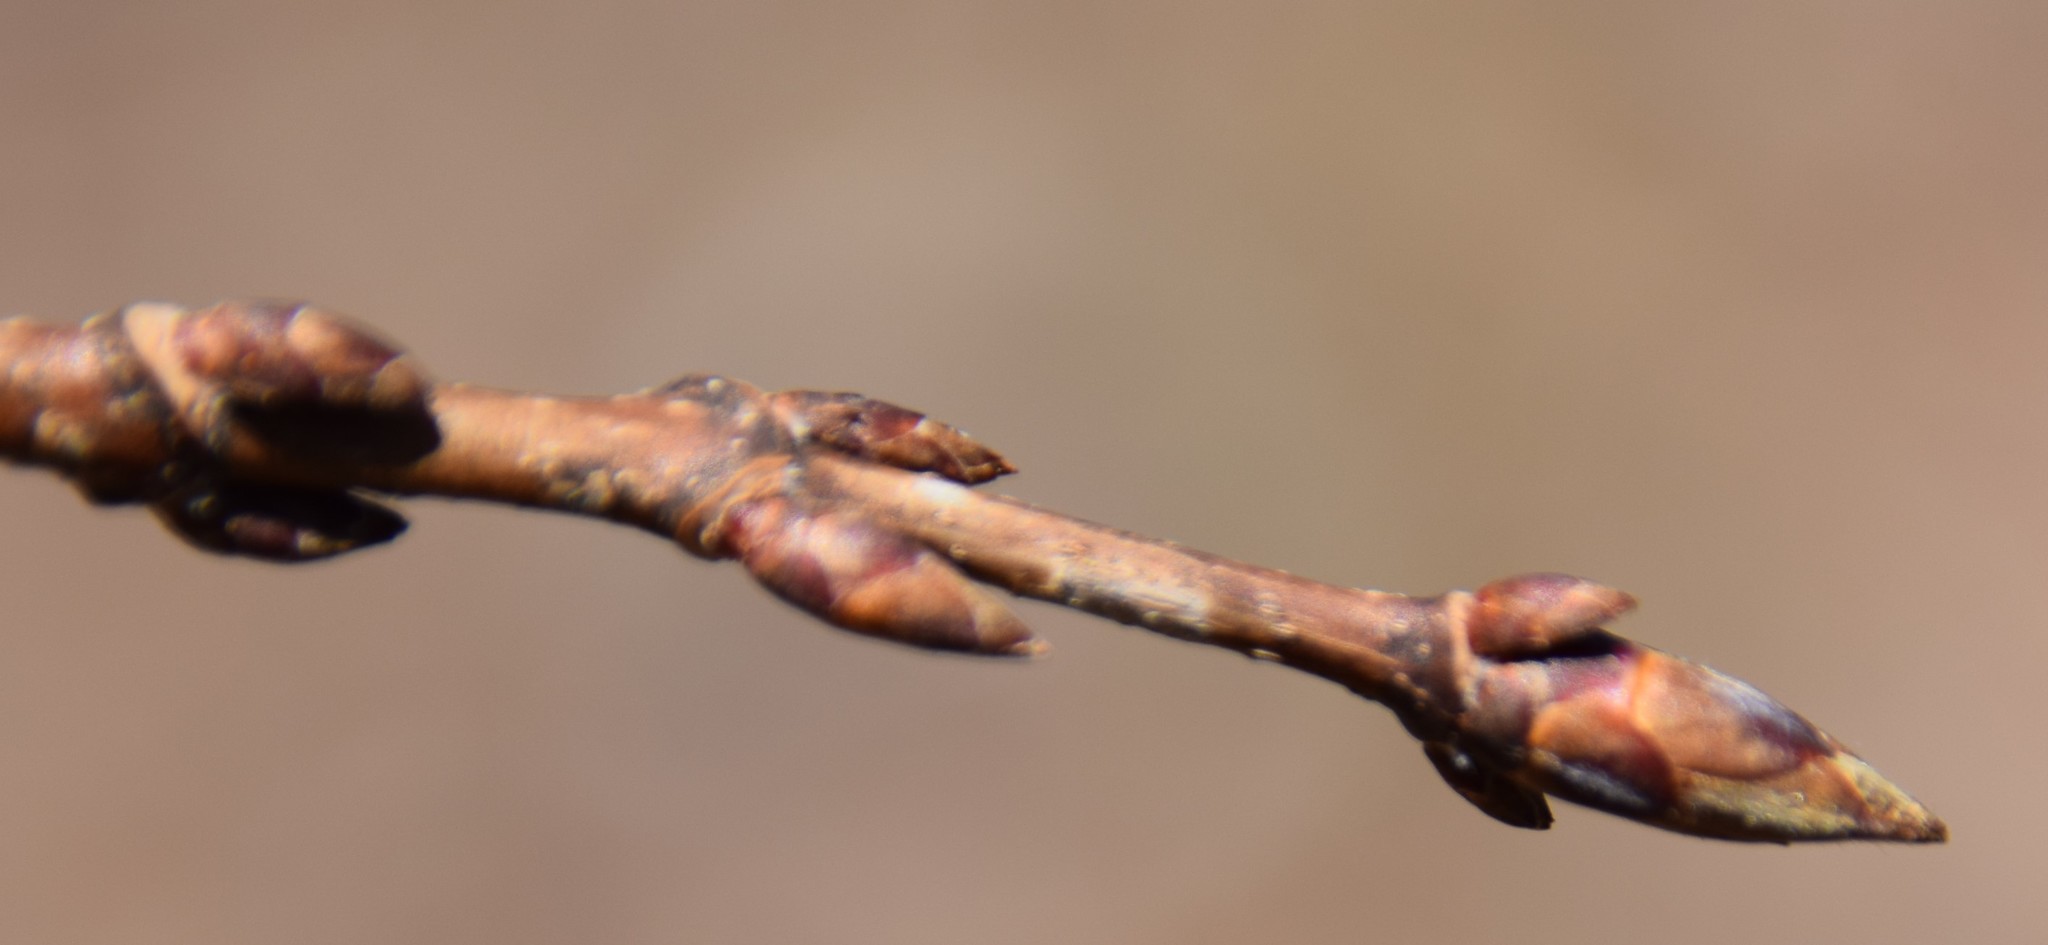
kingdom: Plantae
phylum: Tracheophyta
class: Magnoliopsida
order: Sapindales
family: Sapindaceae
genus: Acer
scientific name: Acer saccharum
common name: Sugar maple
